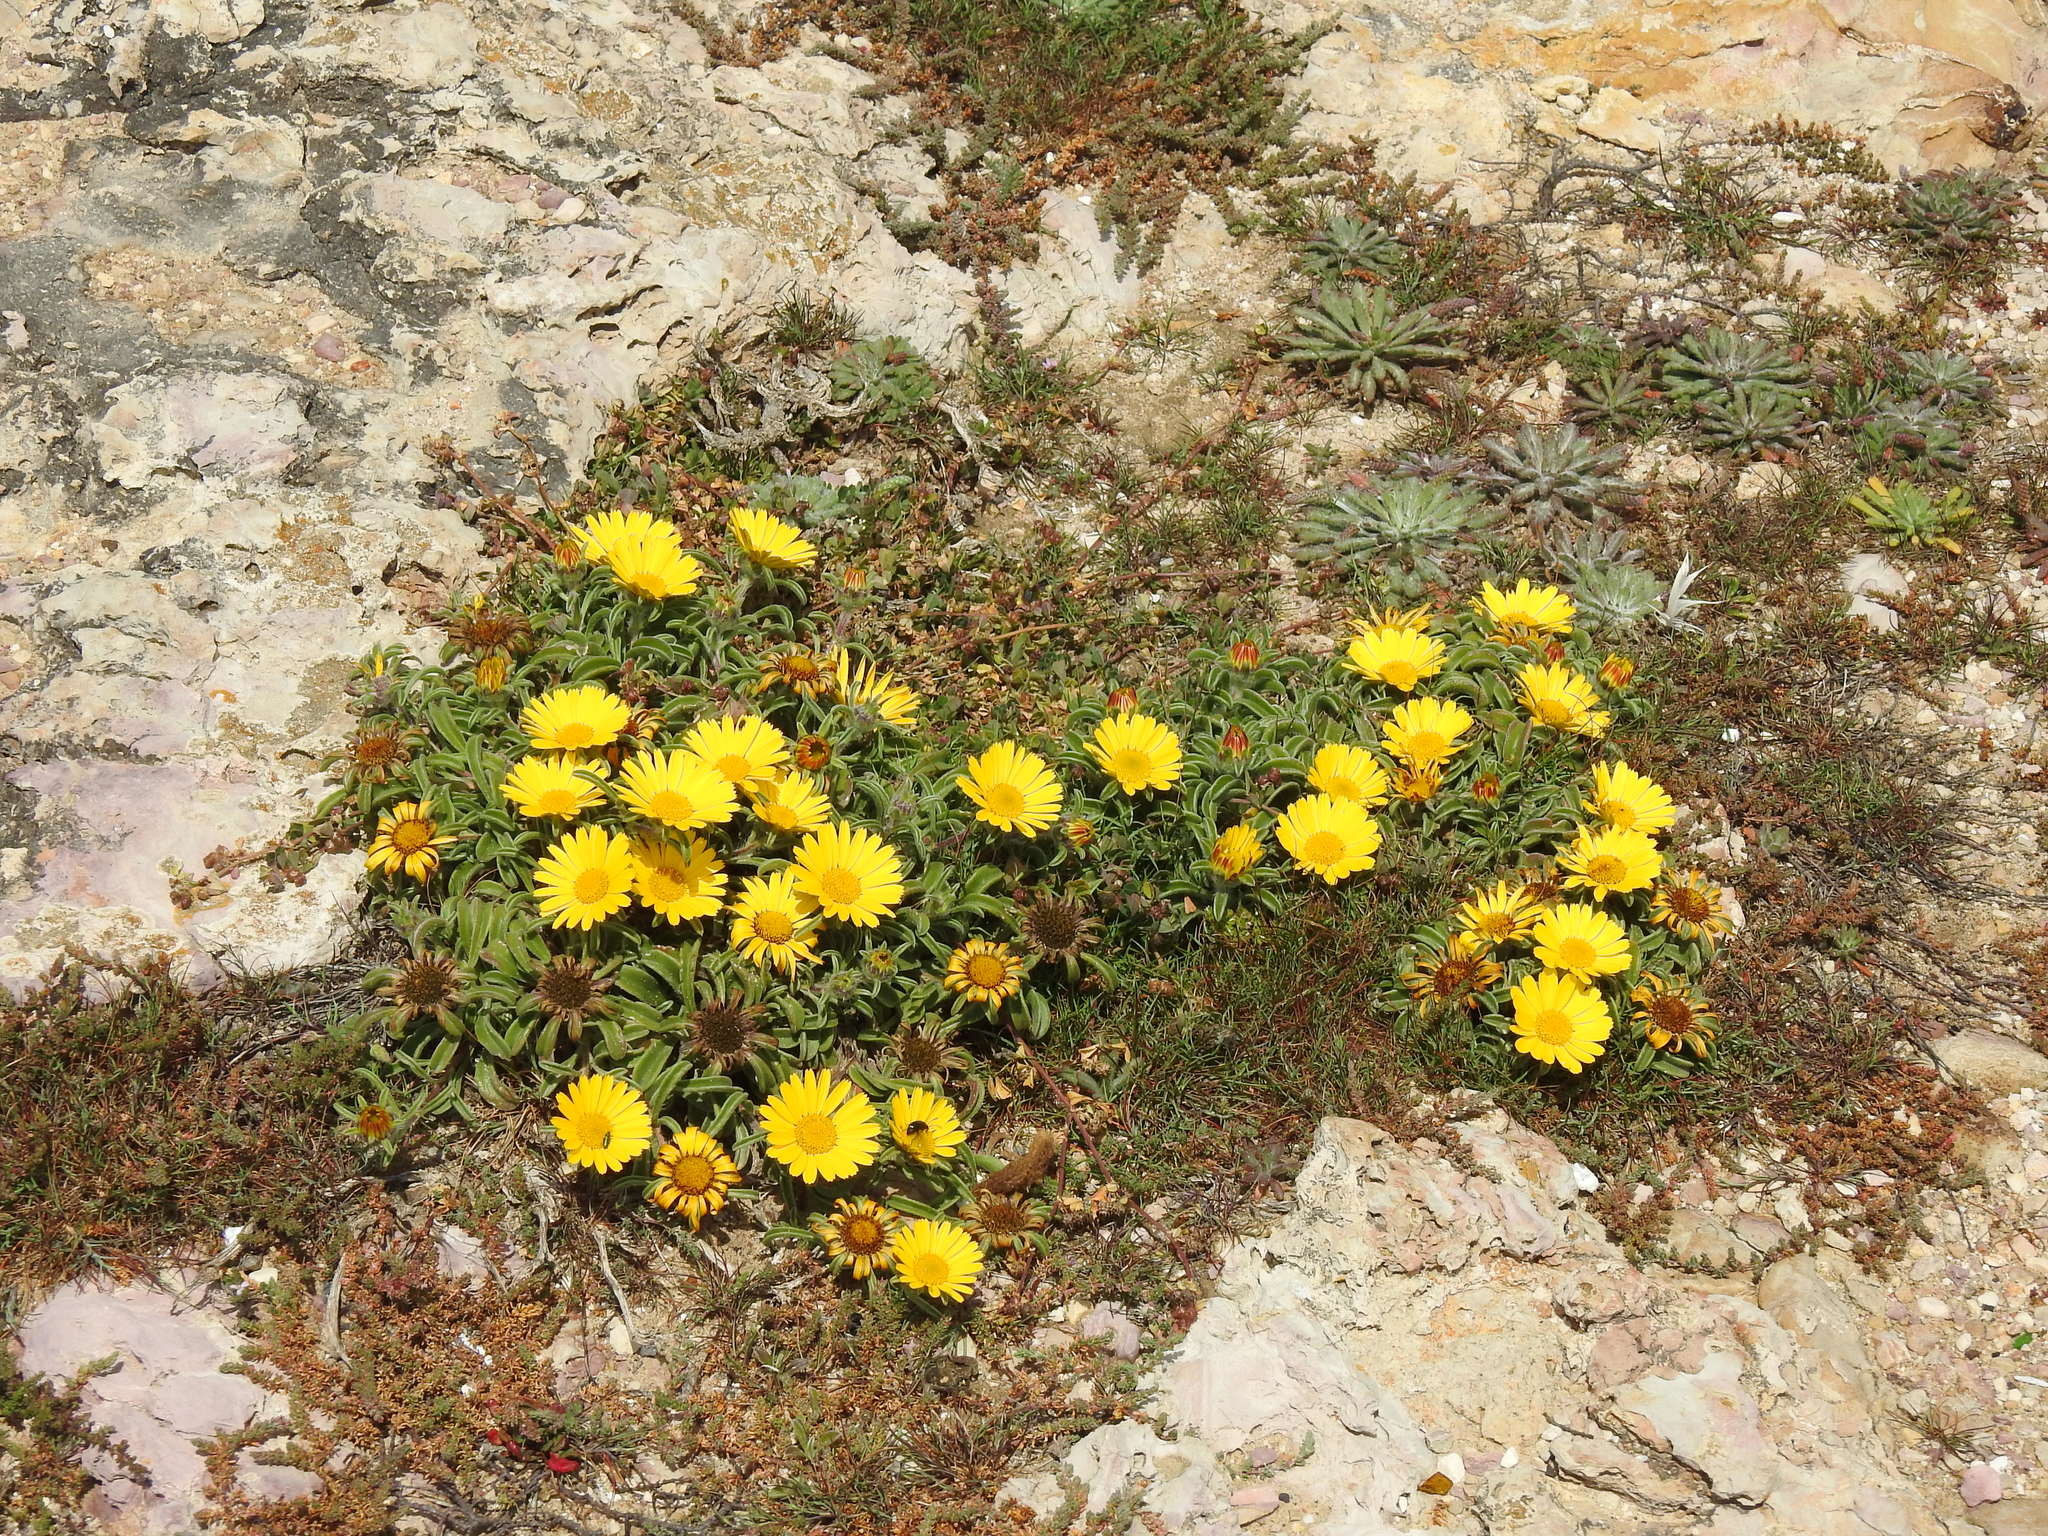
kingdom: Plantae
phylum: Tracheophyta
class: Magnoliopsida
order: Asterales
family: Asteraceae
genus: Pallenis
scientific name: Pallenis maritima
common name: Golden coin daisy
